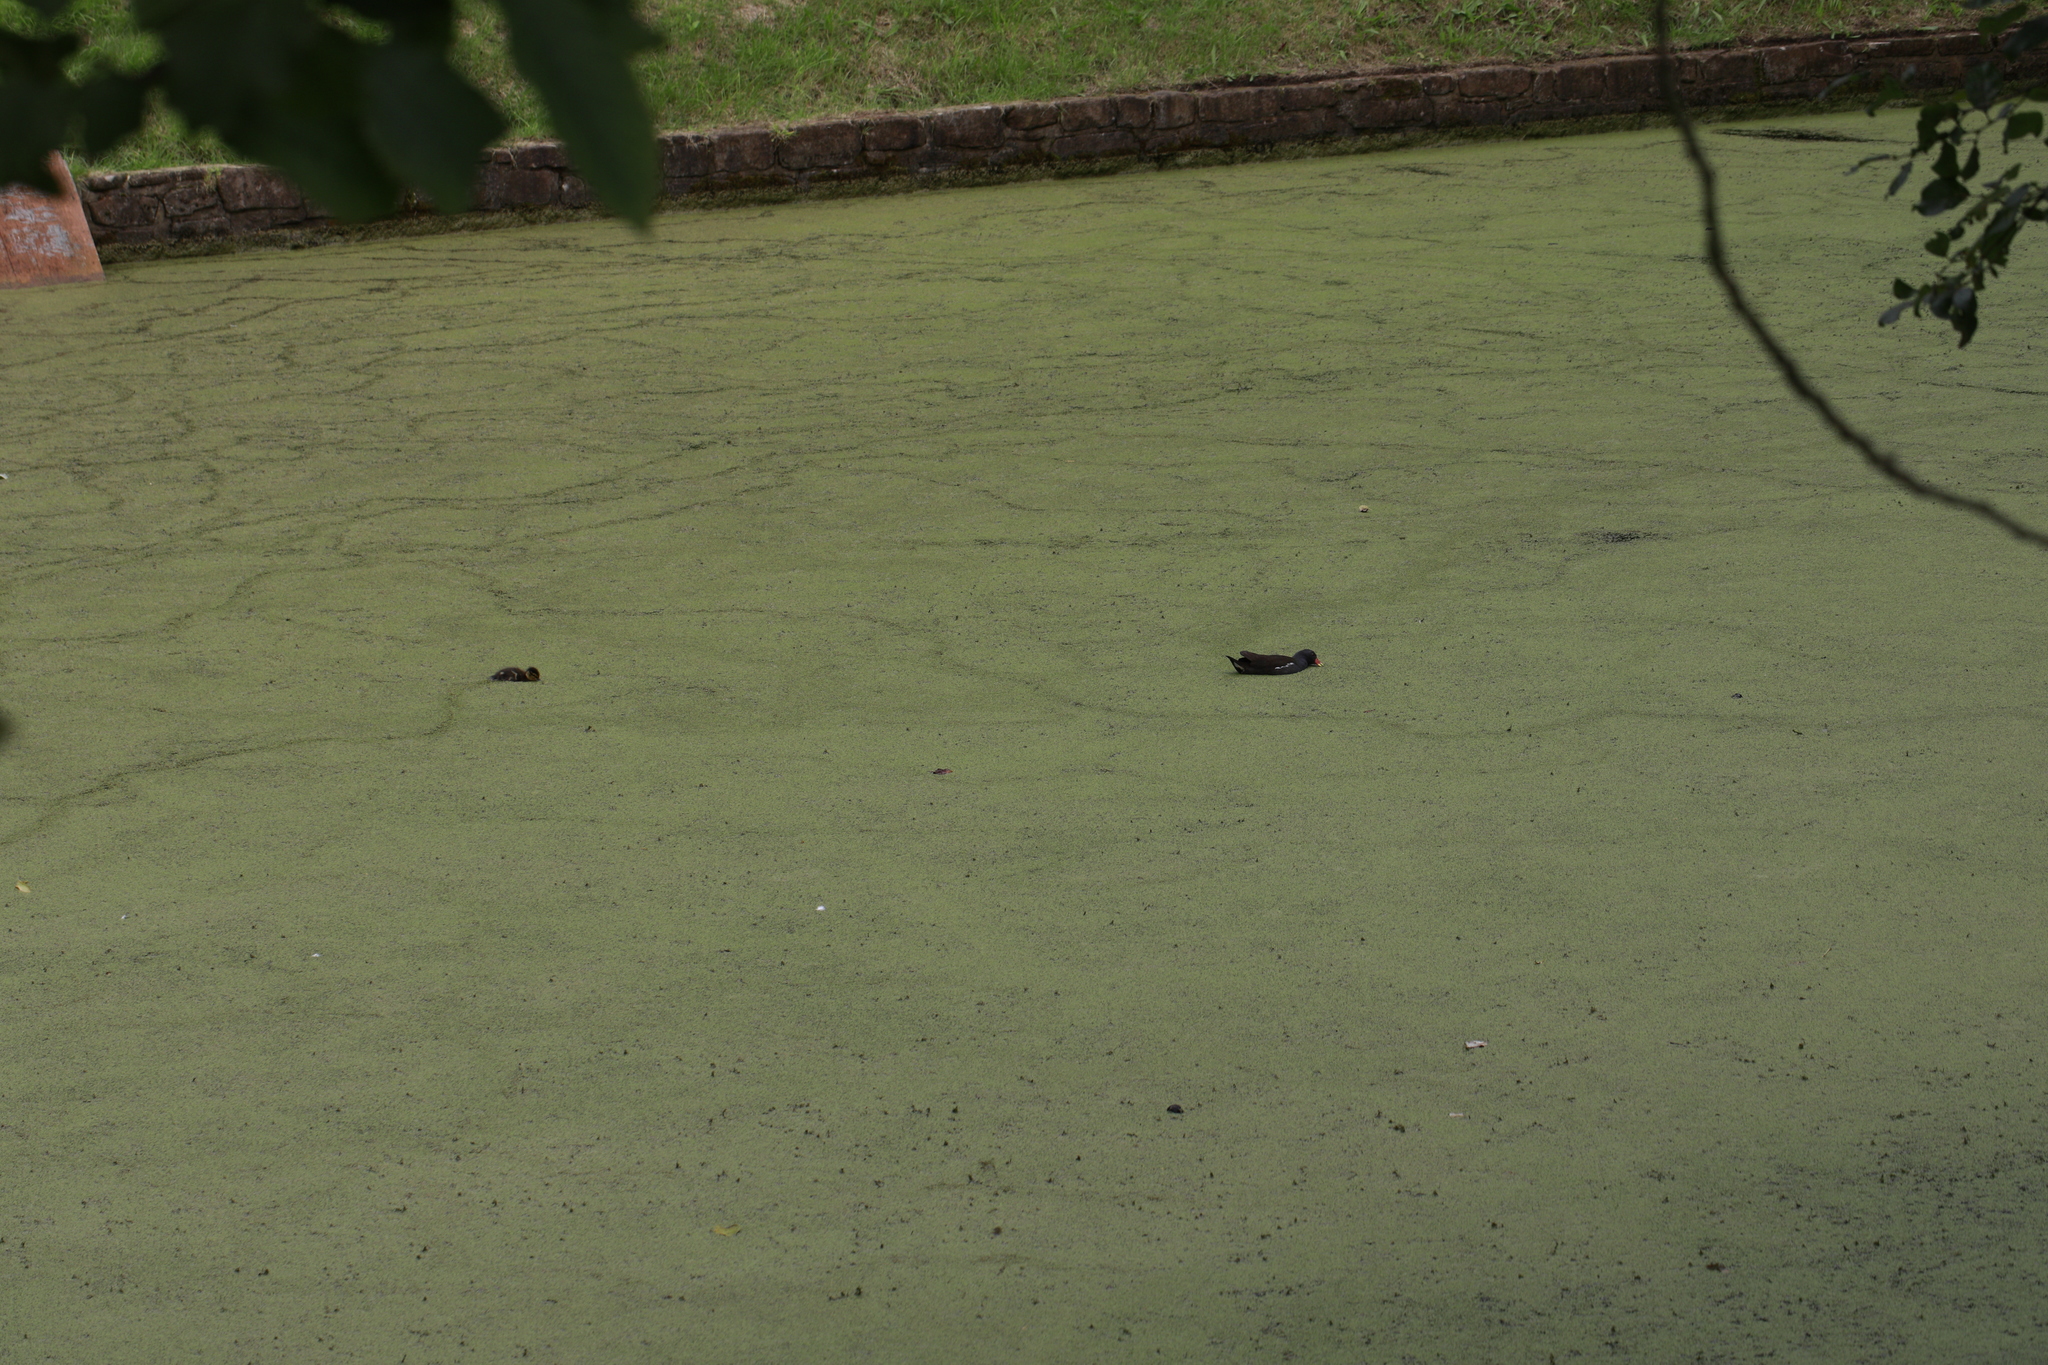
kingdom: Animalia
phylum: Chordata
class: Aves
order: Gruiformes
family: Rallidae
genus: Gallinula
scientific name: Gallinula chloropus
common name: Common moorhen
